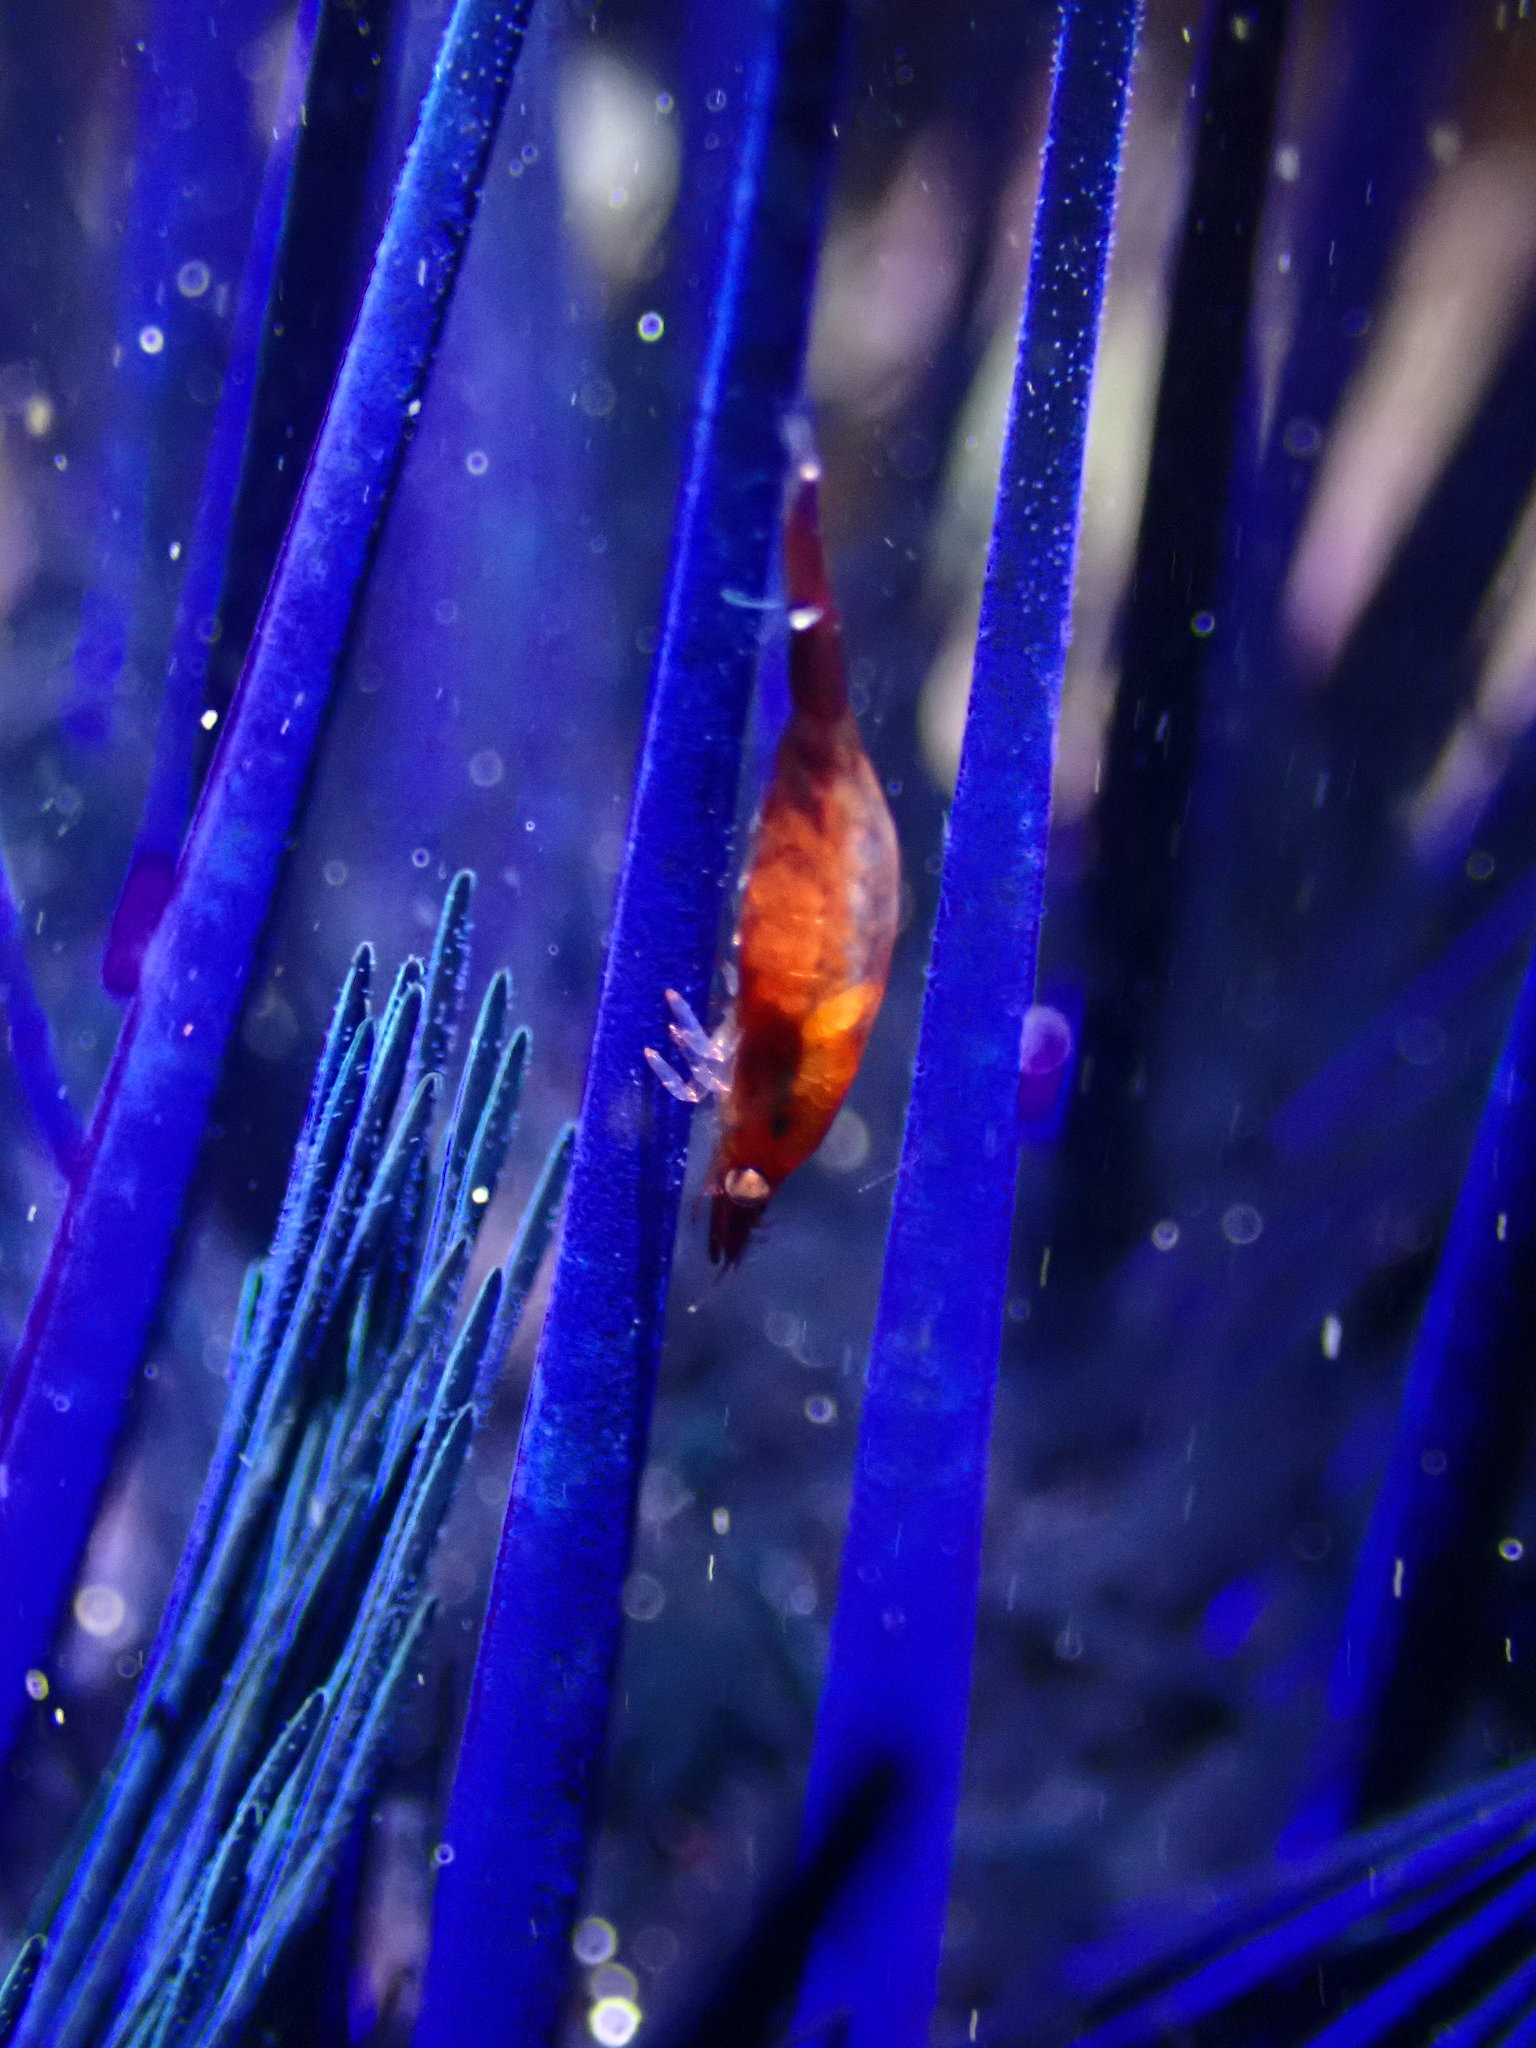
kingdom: Animalia
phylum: Arthropoda
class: Malacostraca
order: Decapoda
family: Palaemonidae
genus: Tuleariocaris
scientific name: Tuleariocaris holthuisi
